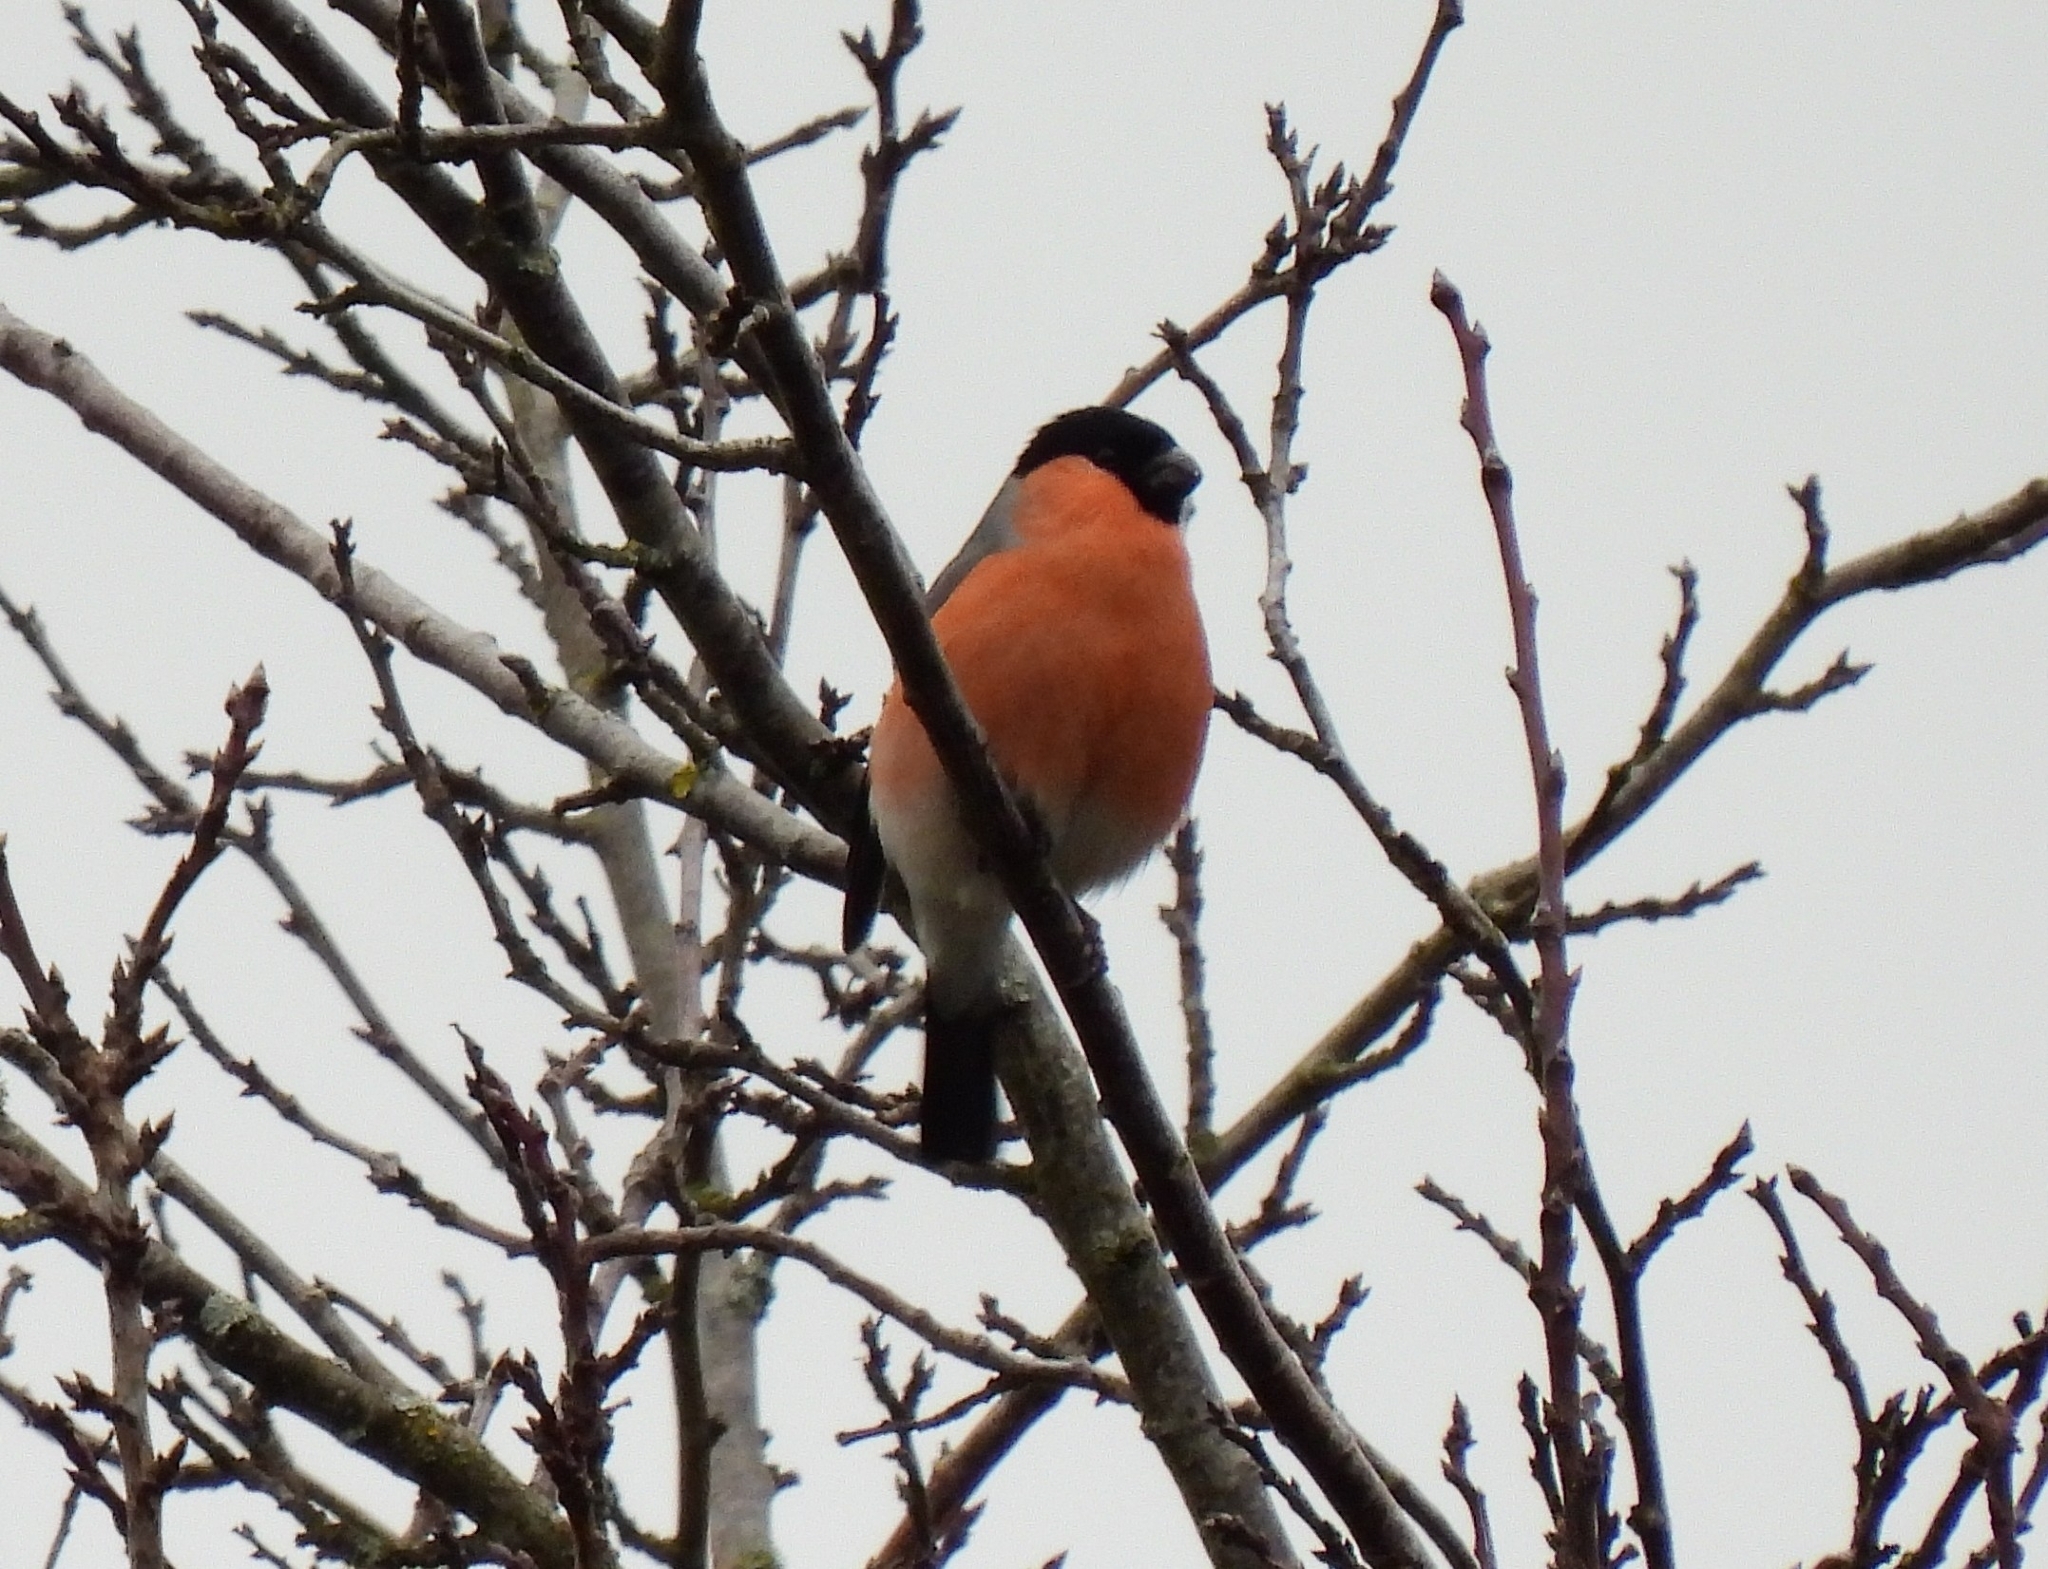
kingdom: Animalia
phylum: Chordata
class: Aves
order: Passeriformes
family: Fringillidae
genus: Pyrrhula
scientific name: Pyrrhula pyrrhula
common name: Eurasian bullfinch
